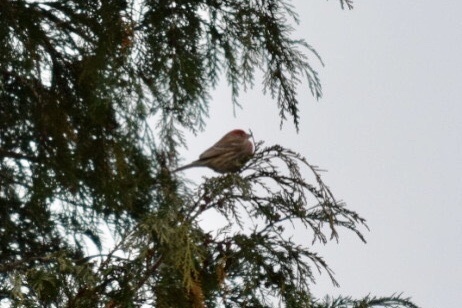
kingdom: Animalia
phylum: Chordata
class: Aves
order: Passeriformes
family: Fringillidae
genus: Haemorhous
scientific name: Haemorhous mexicanus
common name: House finch
